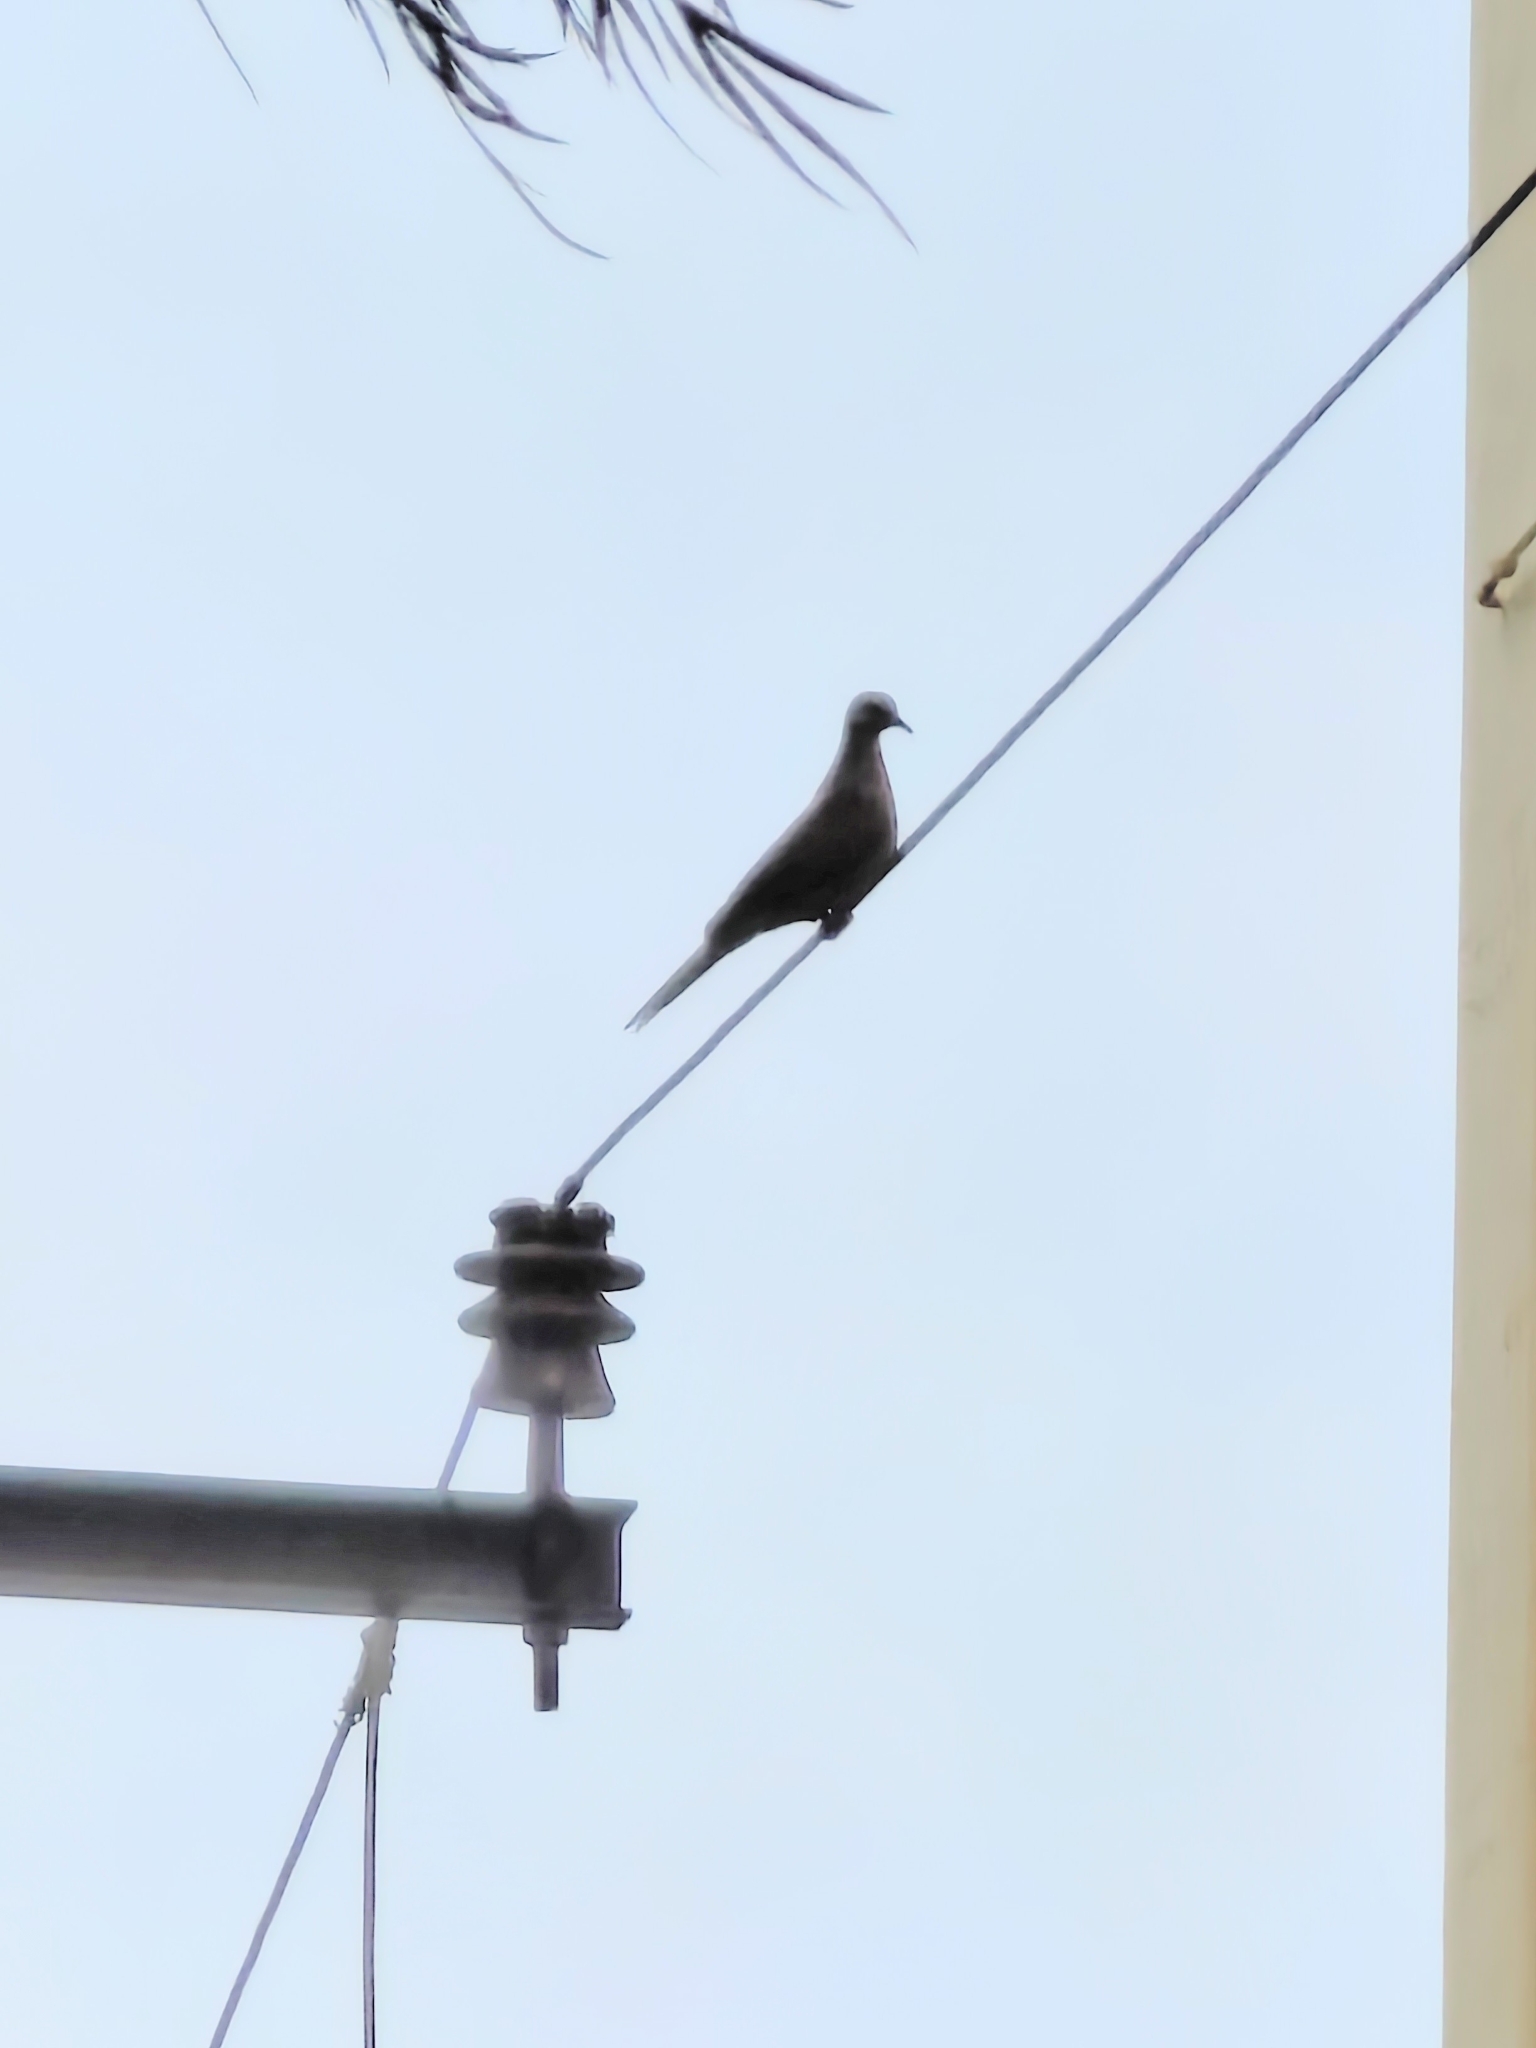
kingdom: Animalia
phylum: Chordata
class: Aves
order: Columbiformes
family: Columbidae
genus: Spilopelia
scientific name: Spilopelia chinensis
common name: Spotted dove
